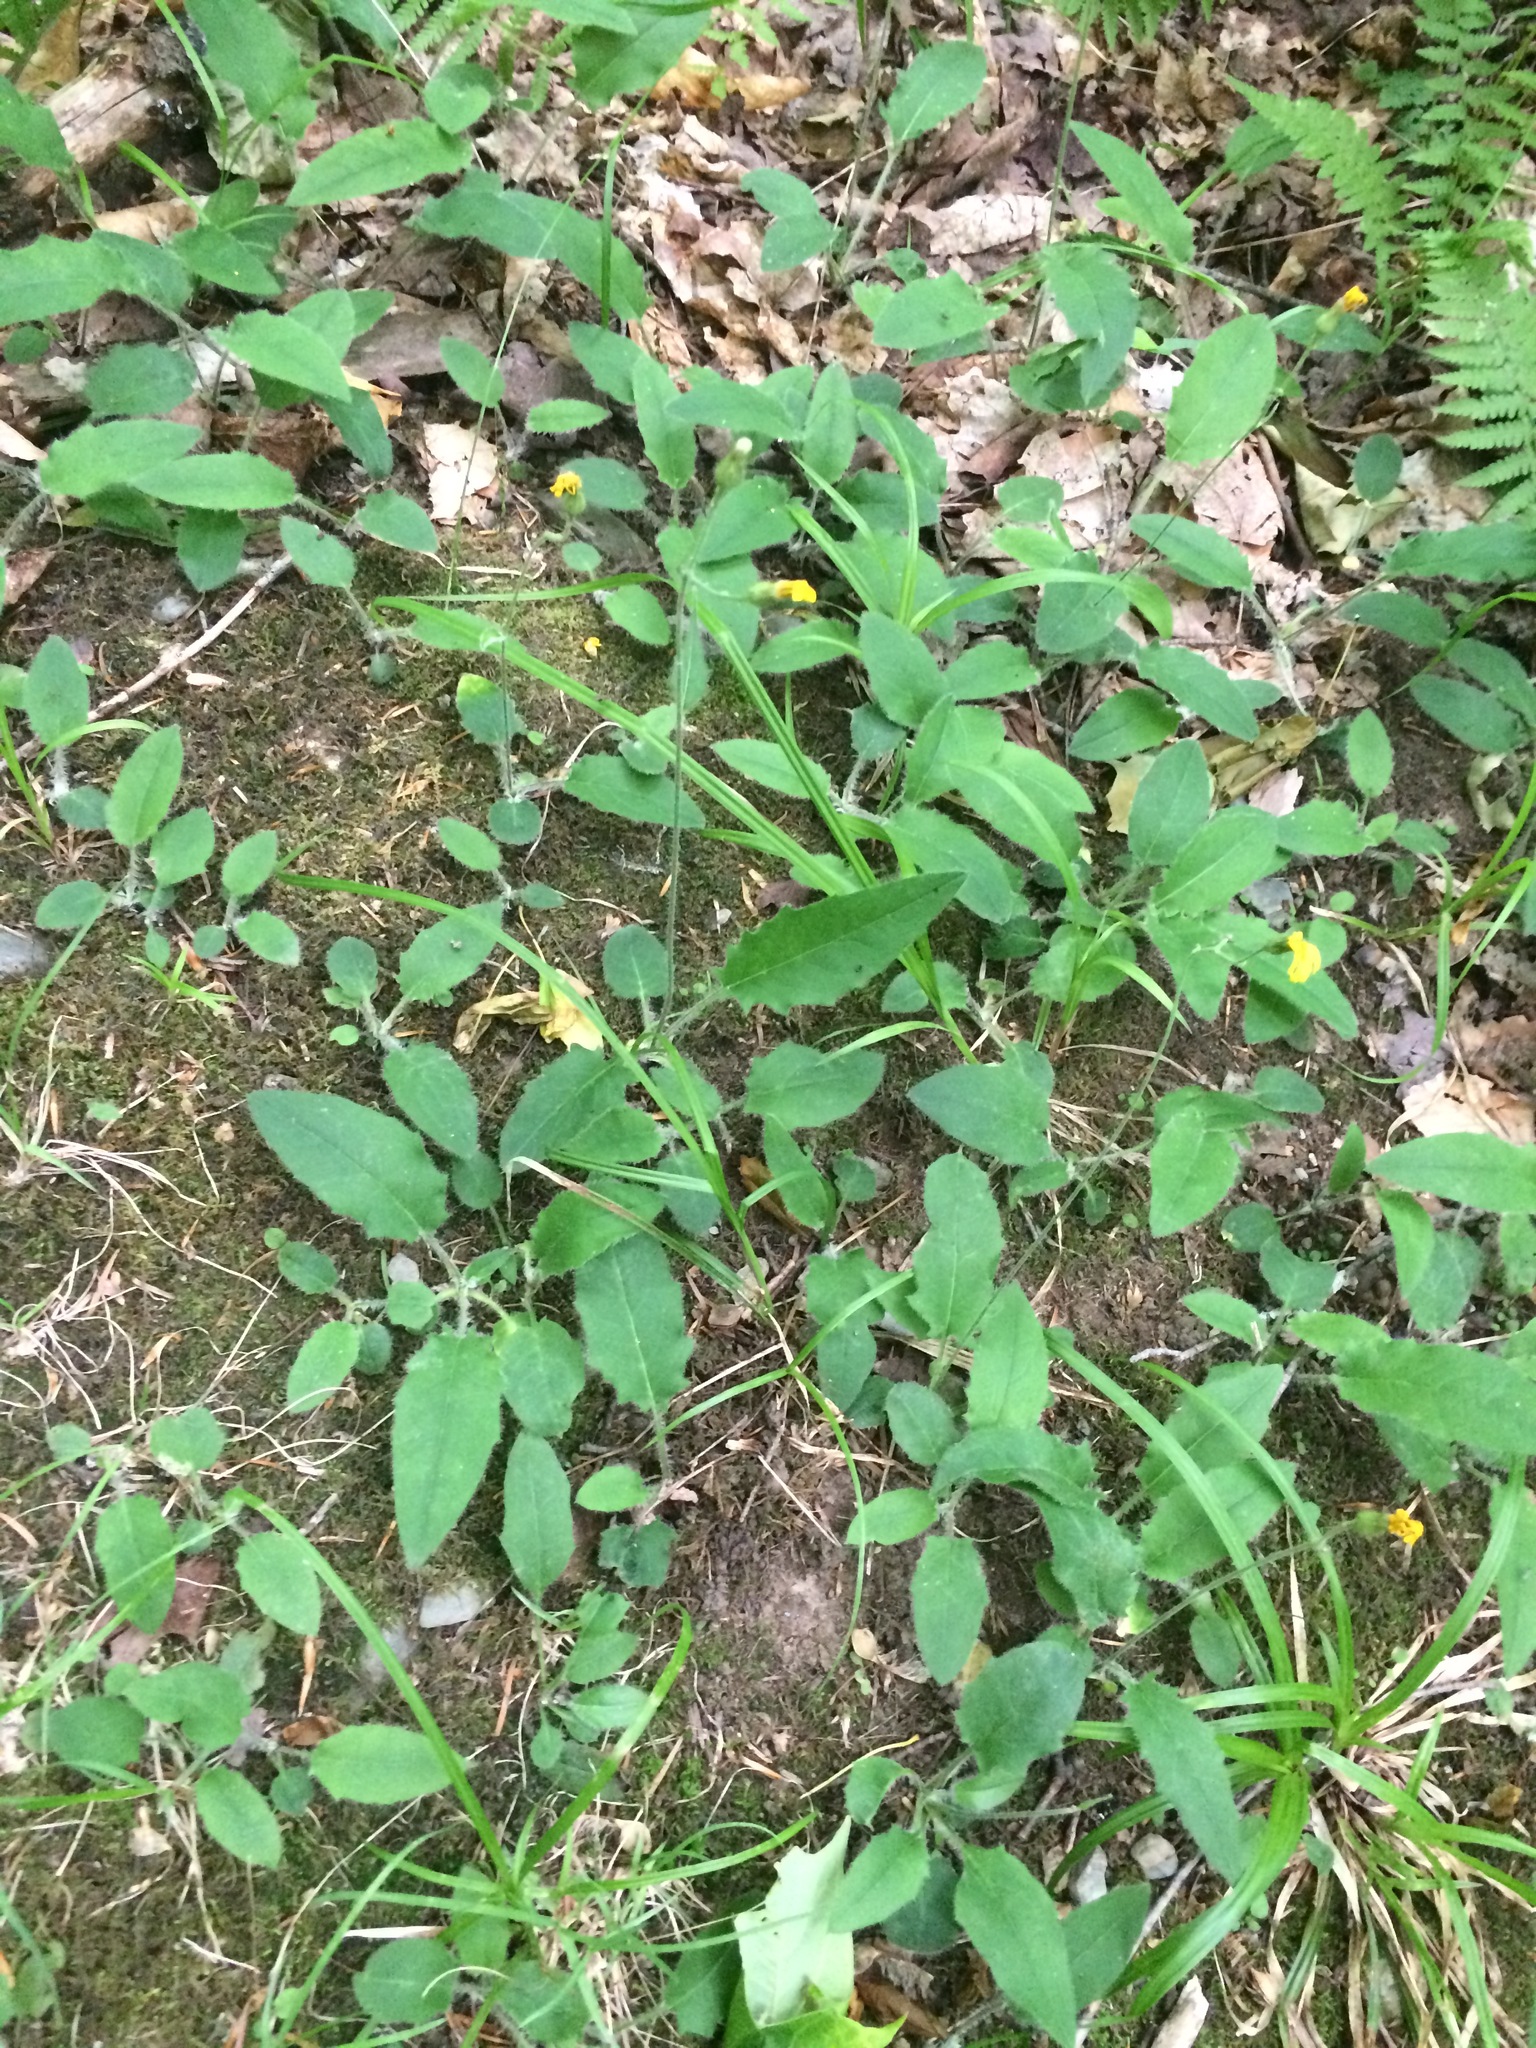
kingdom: Plantae
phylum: Tracheophyta
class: Magnoliopsida
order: Asterales
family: Asteraceae
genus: Hieracium
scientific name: Hieracium murorum
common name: Wall hawkweed
